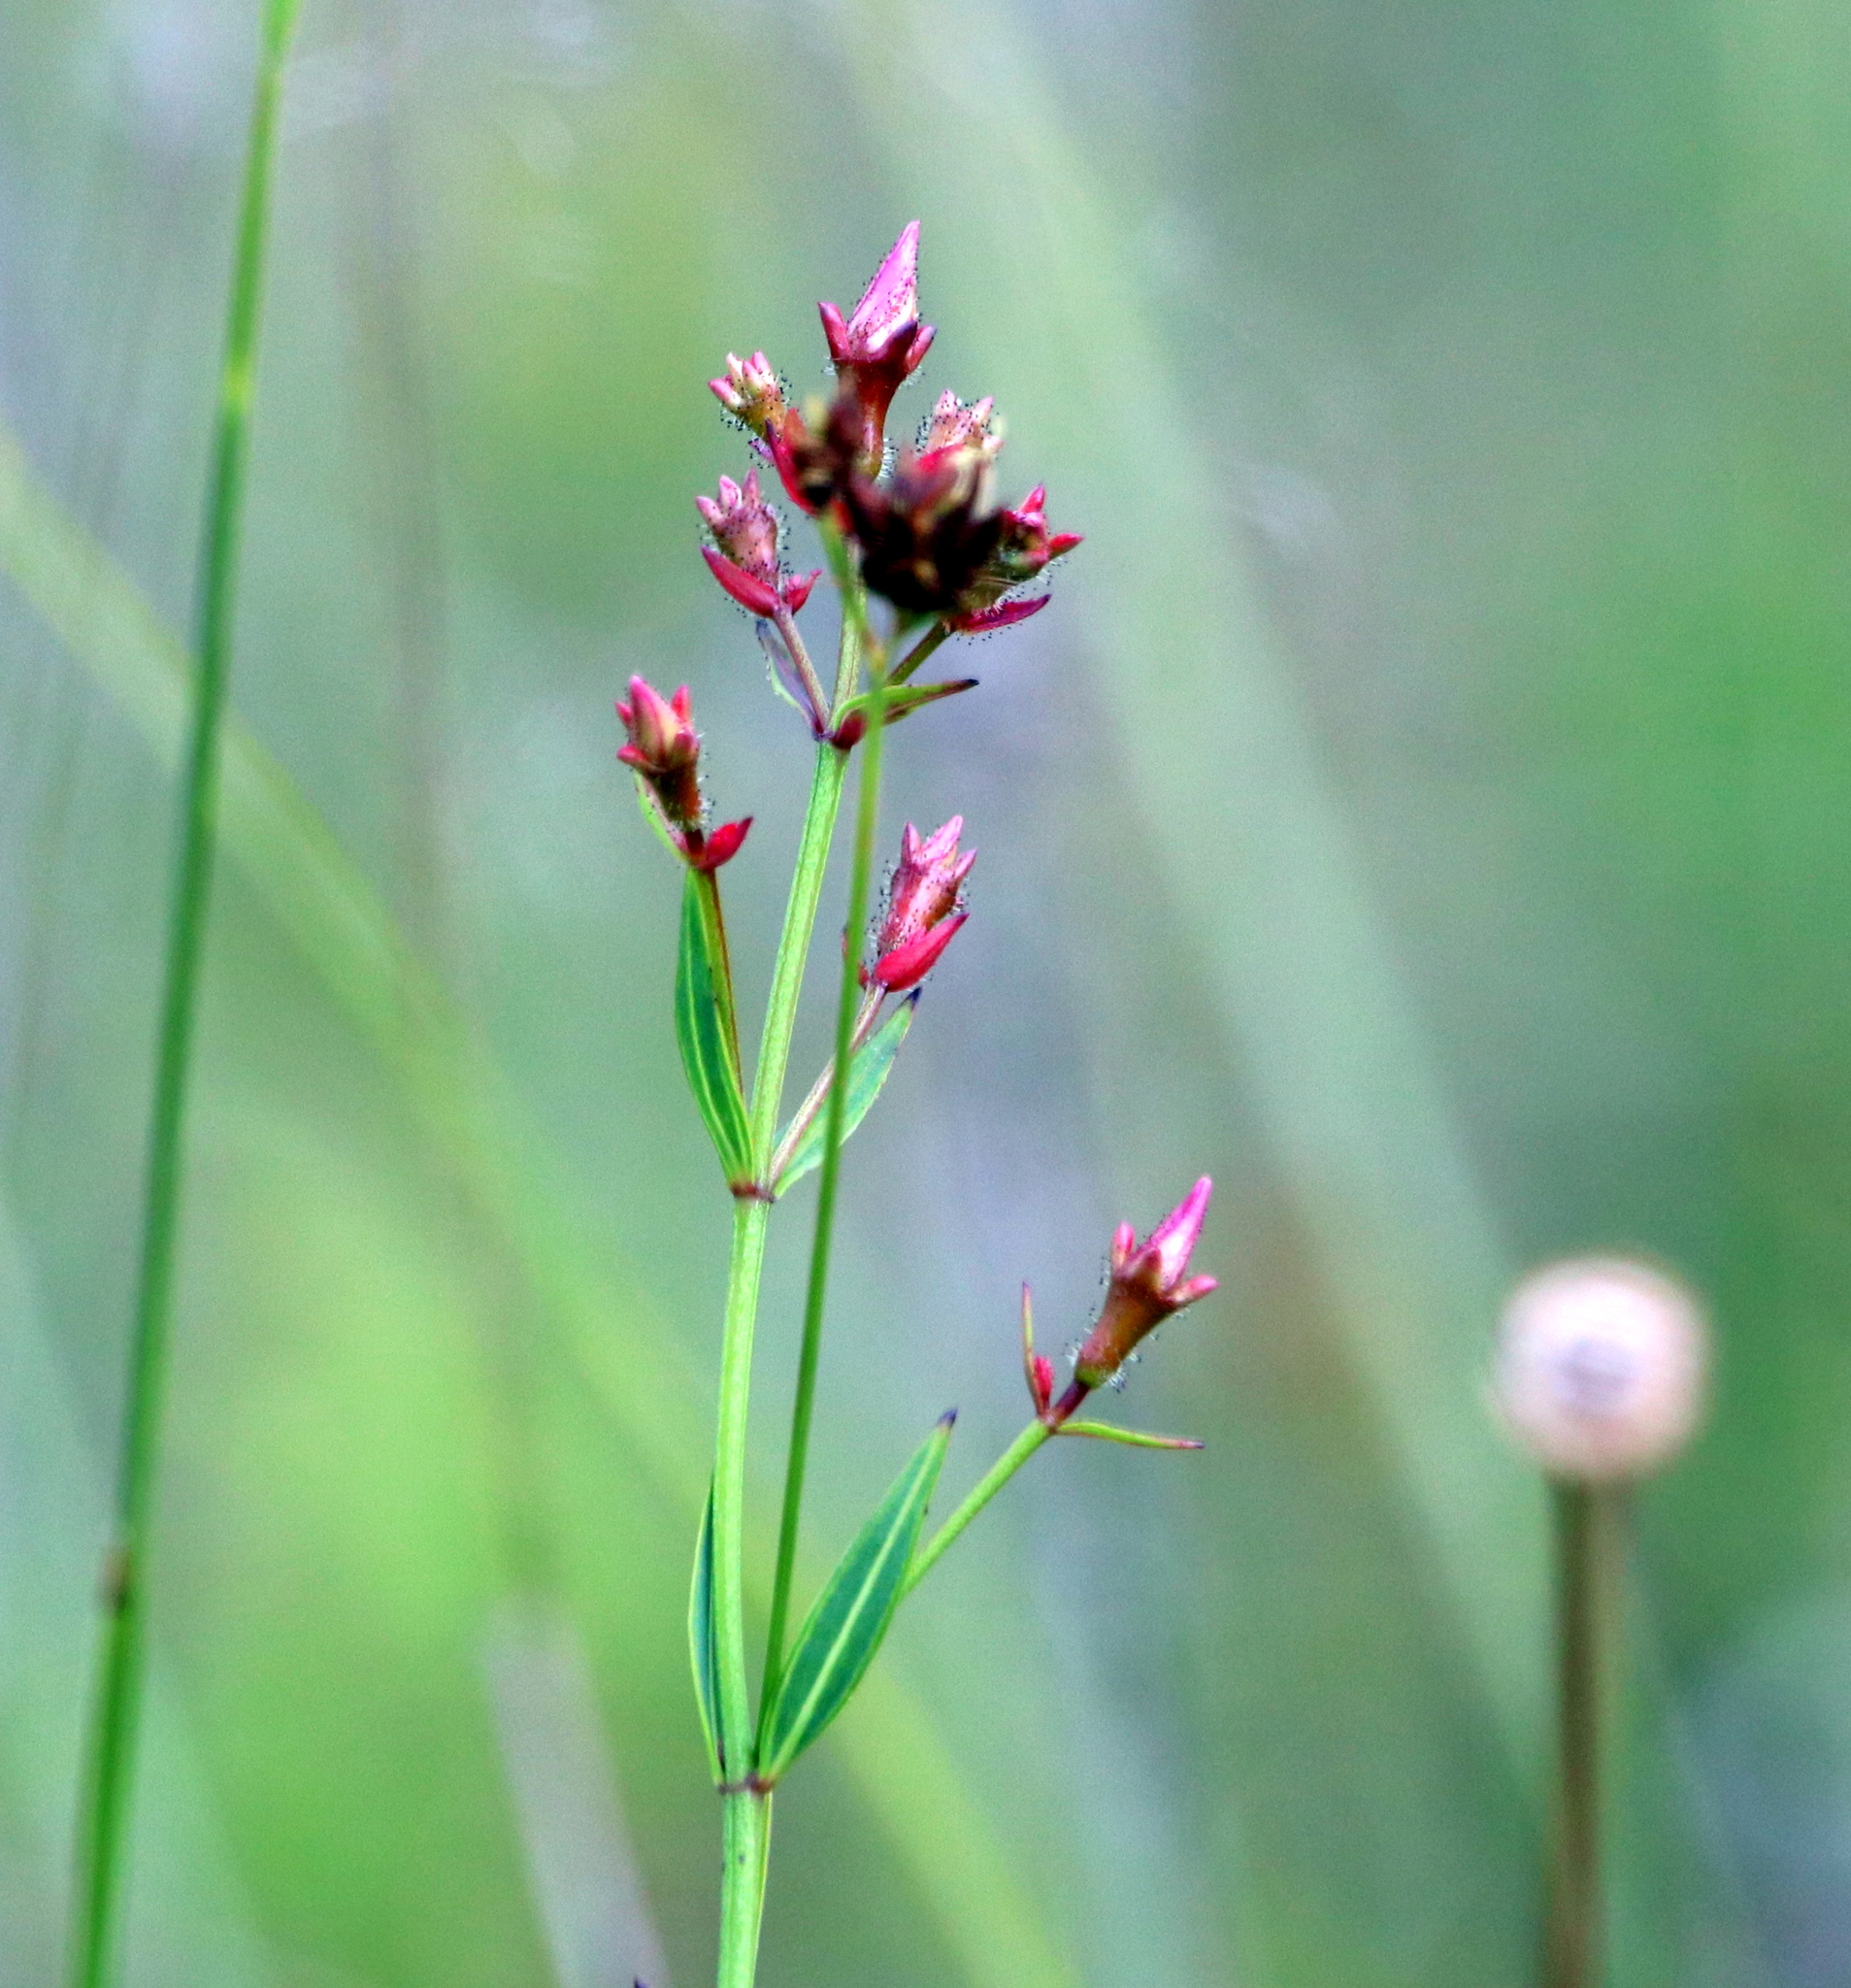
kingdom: Plantae
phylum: Tracheophyta
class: Magnoliopsida
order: Myrtales
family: Melastomataceae
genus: Rhexia
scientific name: Rhexia alifanus
